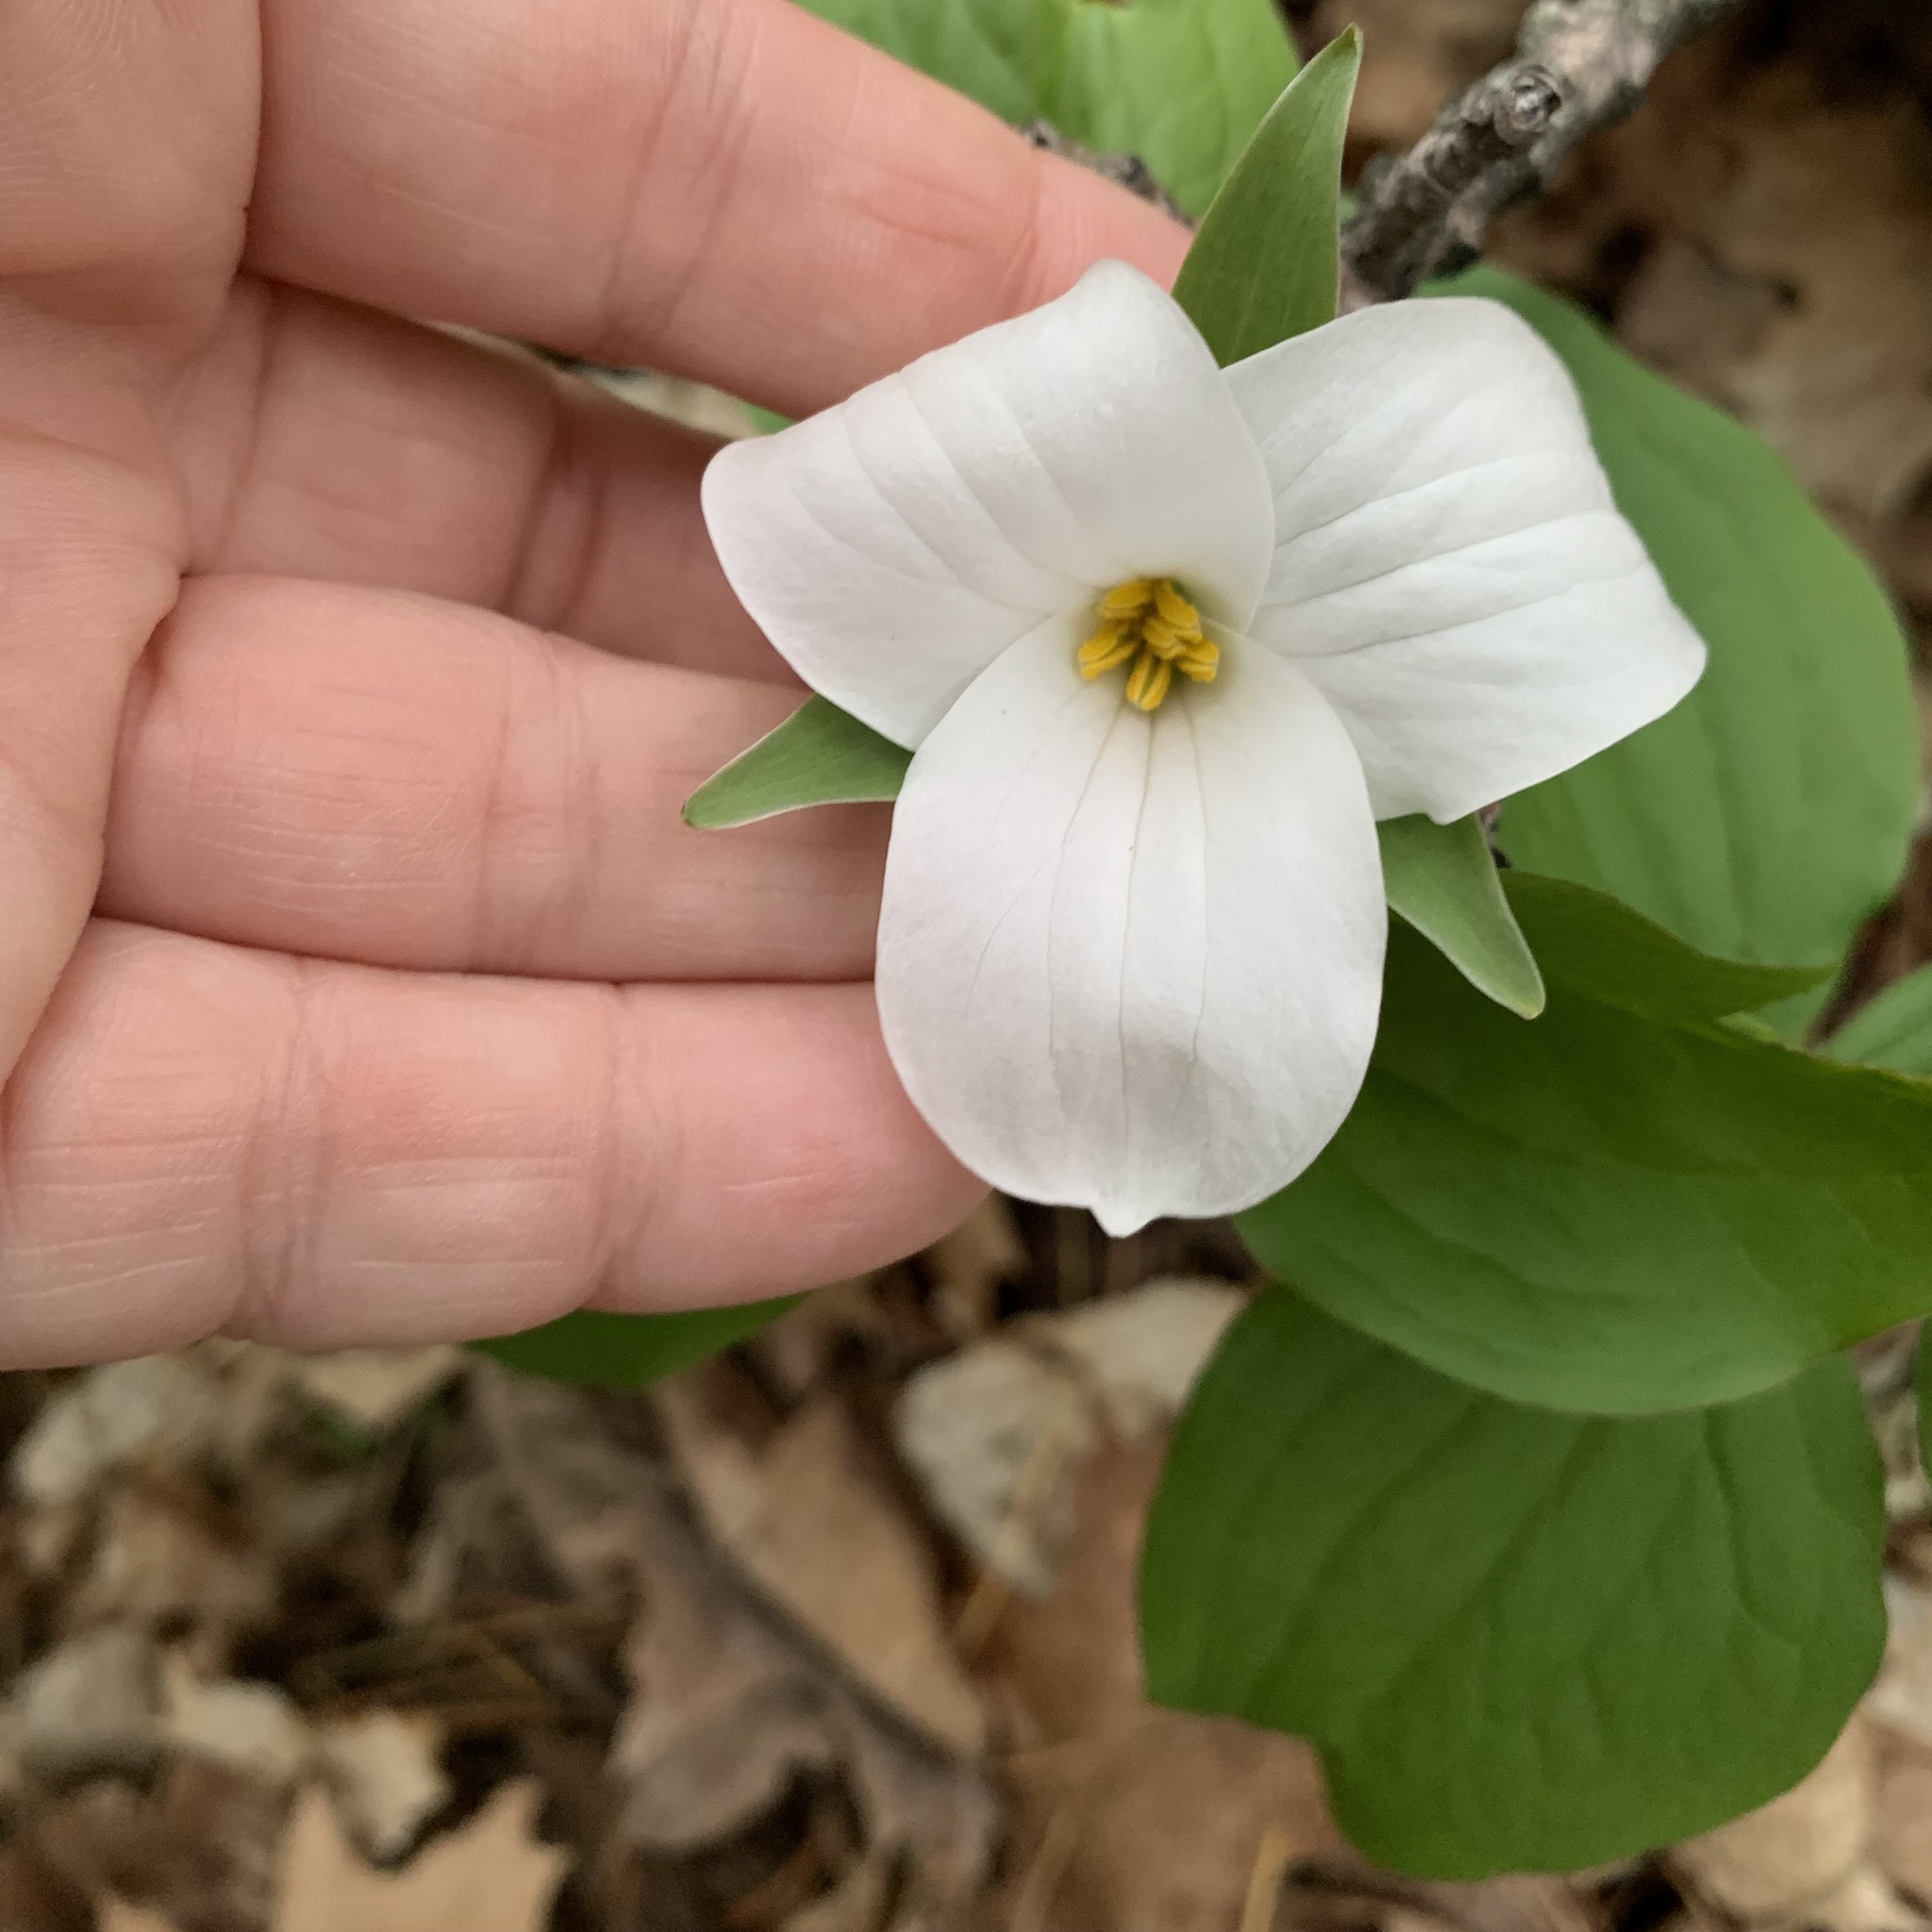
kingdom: Plantae
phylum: Tracheophyta
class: Liliopsida
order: Liliales
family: Melanthiaceae
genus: Trillium
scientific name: Trillium grandiflorum
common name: Great white trillium
